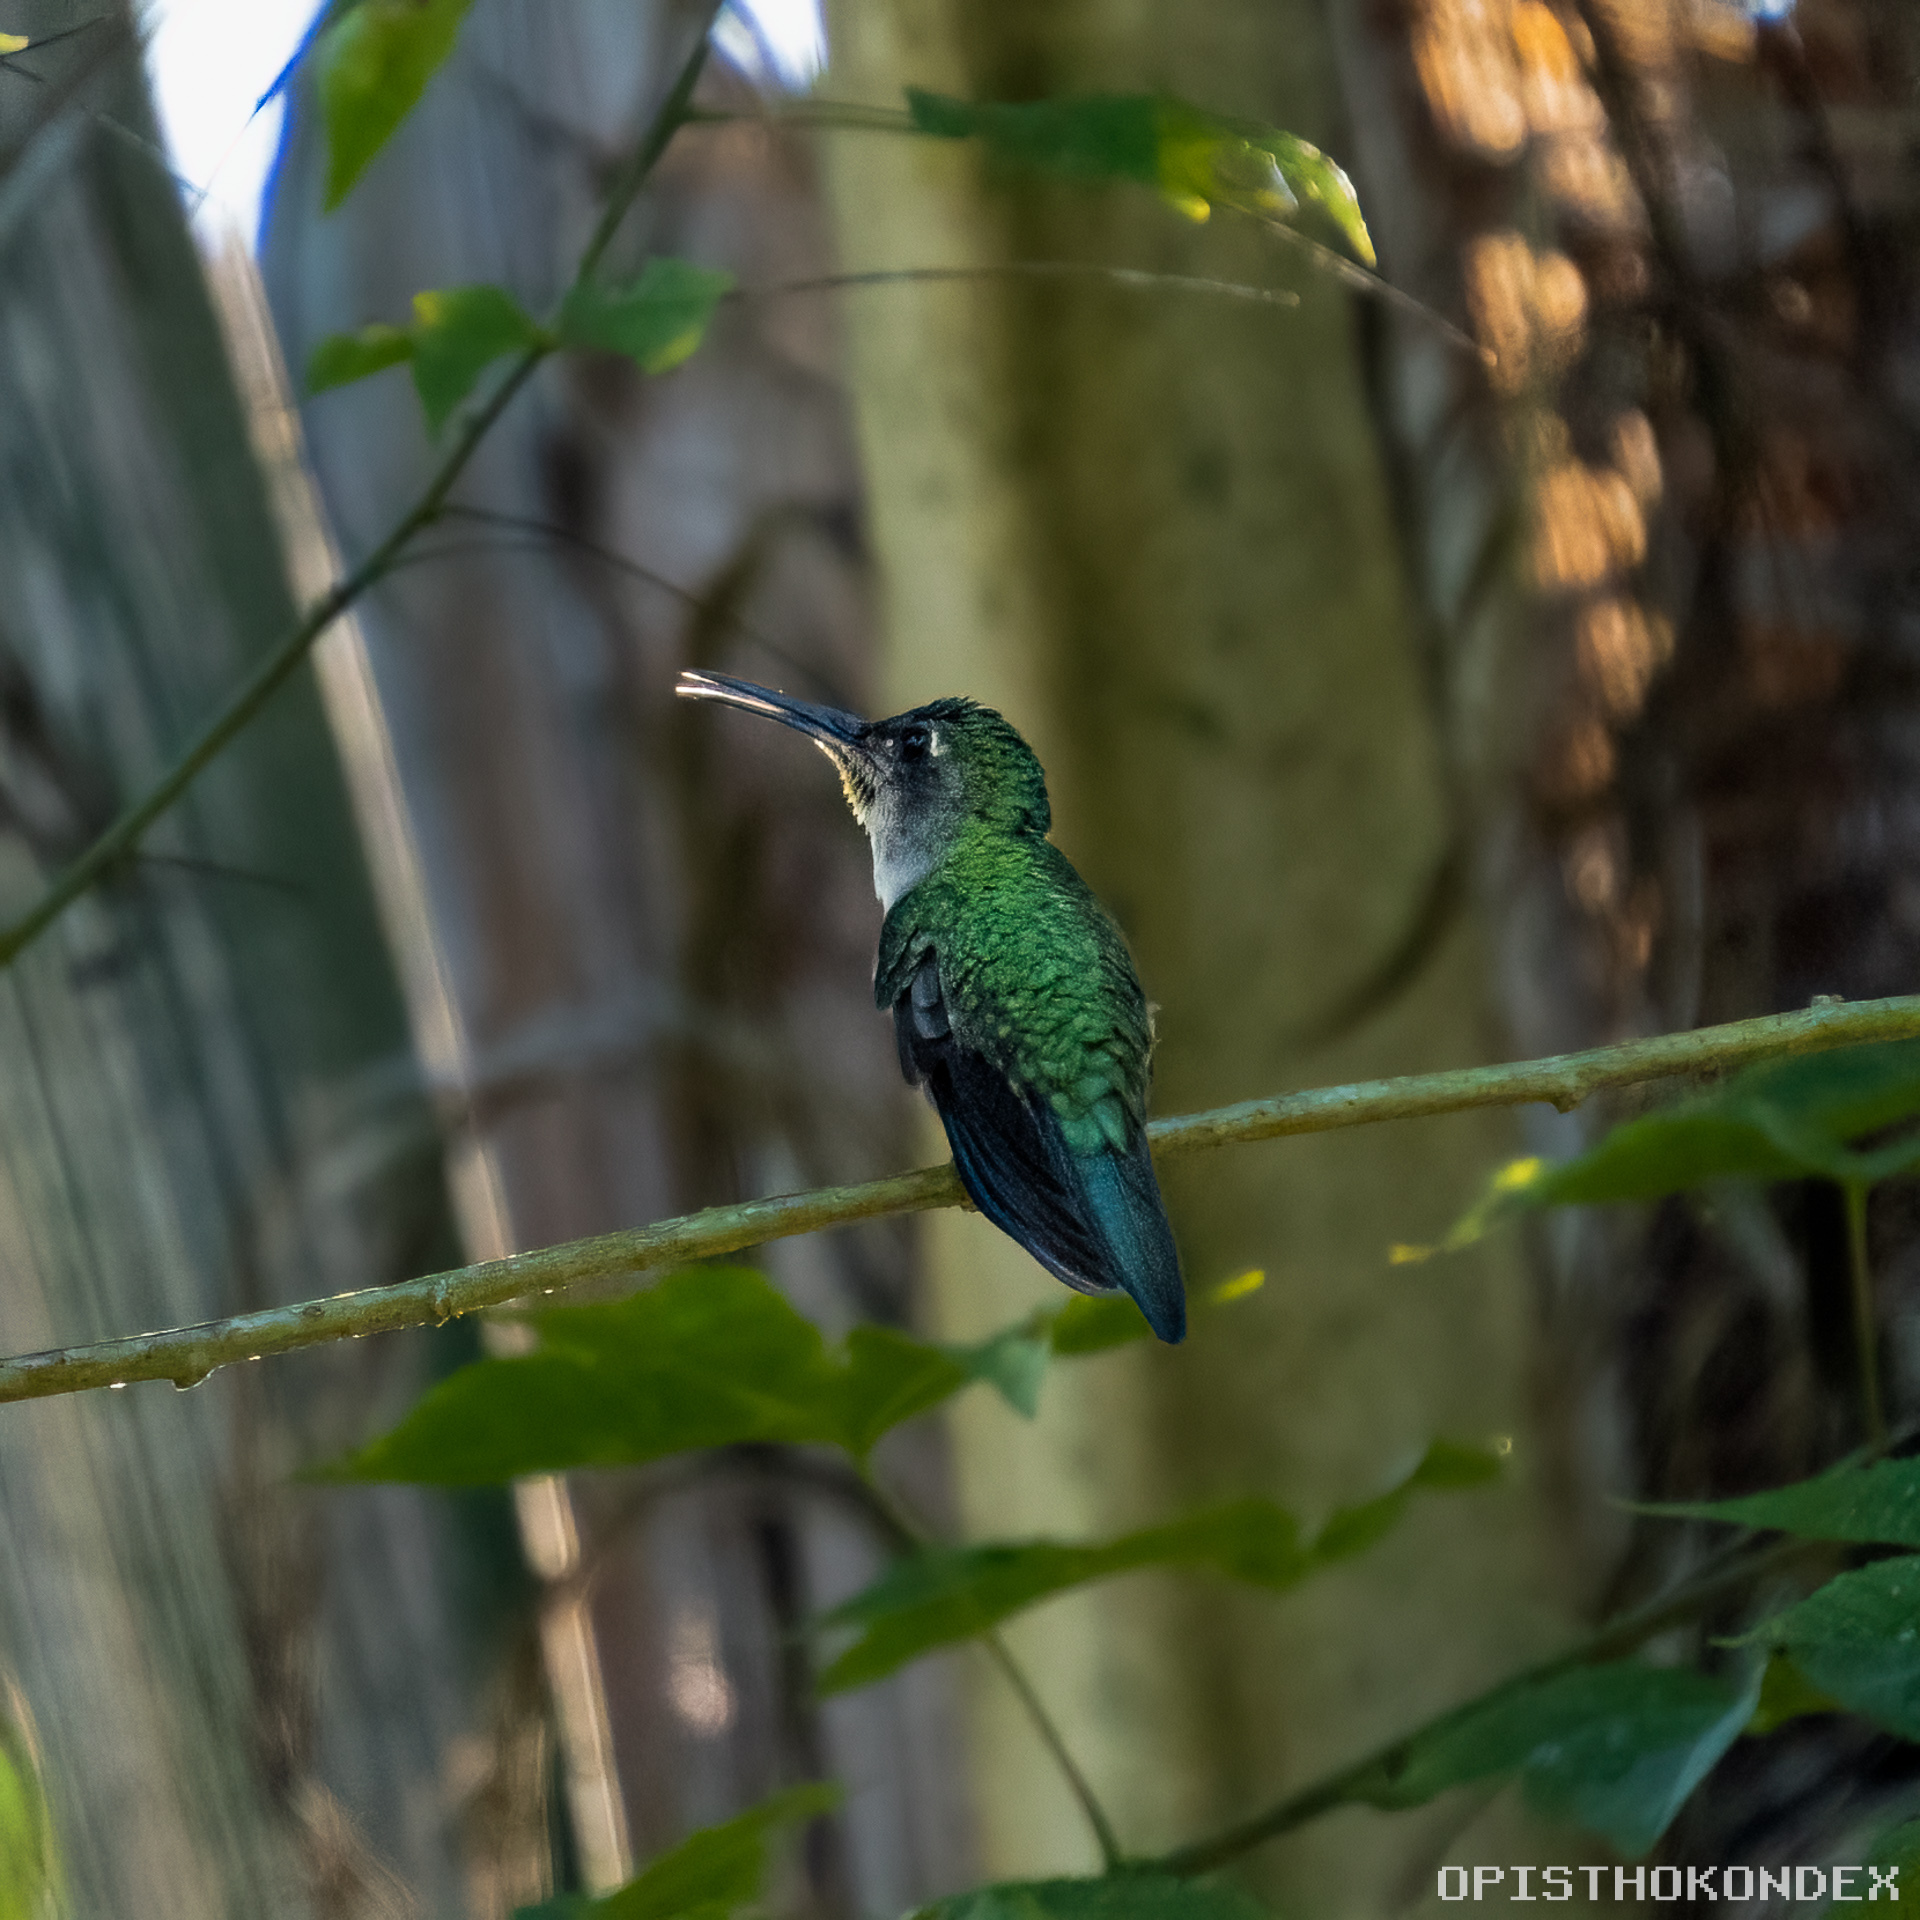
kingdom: Animalia
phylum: Chordata
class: Aves
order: Apodiformes
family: Trochilidae
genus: Pampa
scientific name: Pampa curvipennis
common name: Curve-winged sabrewing
